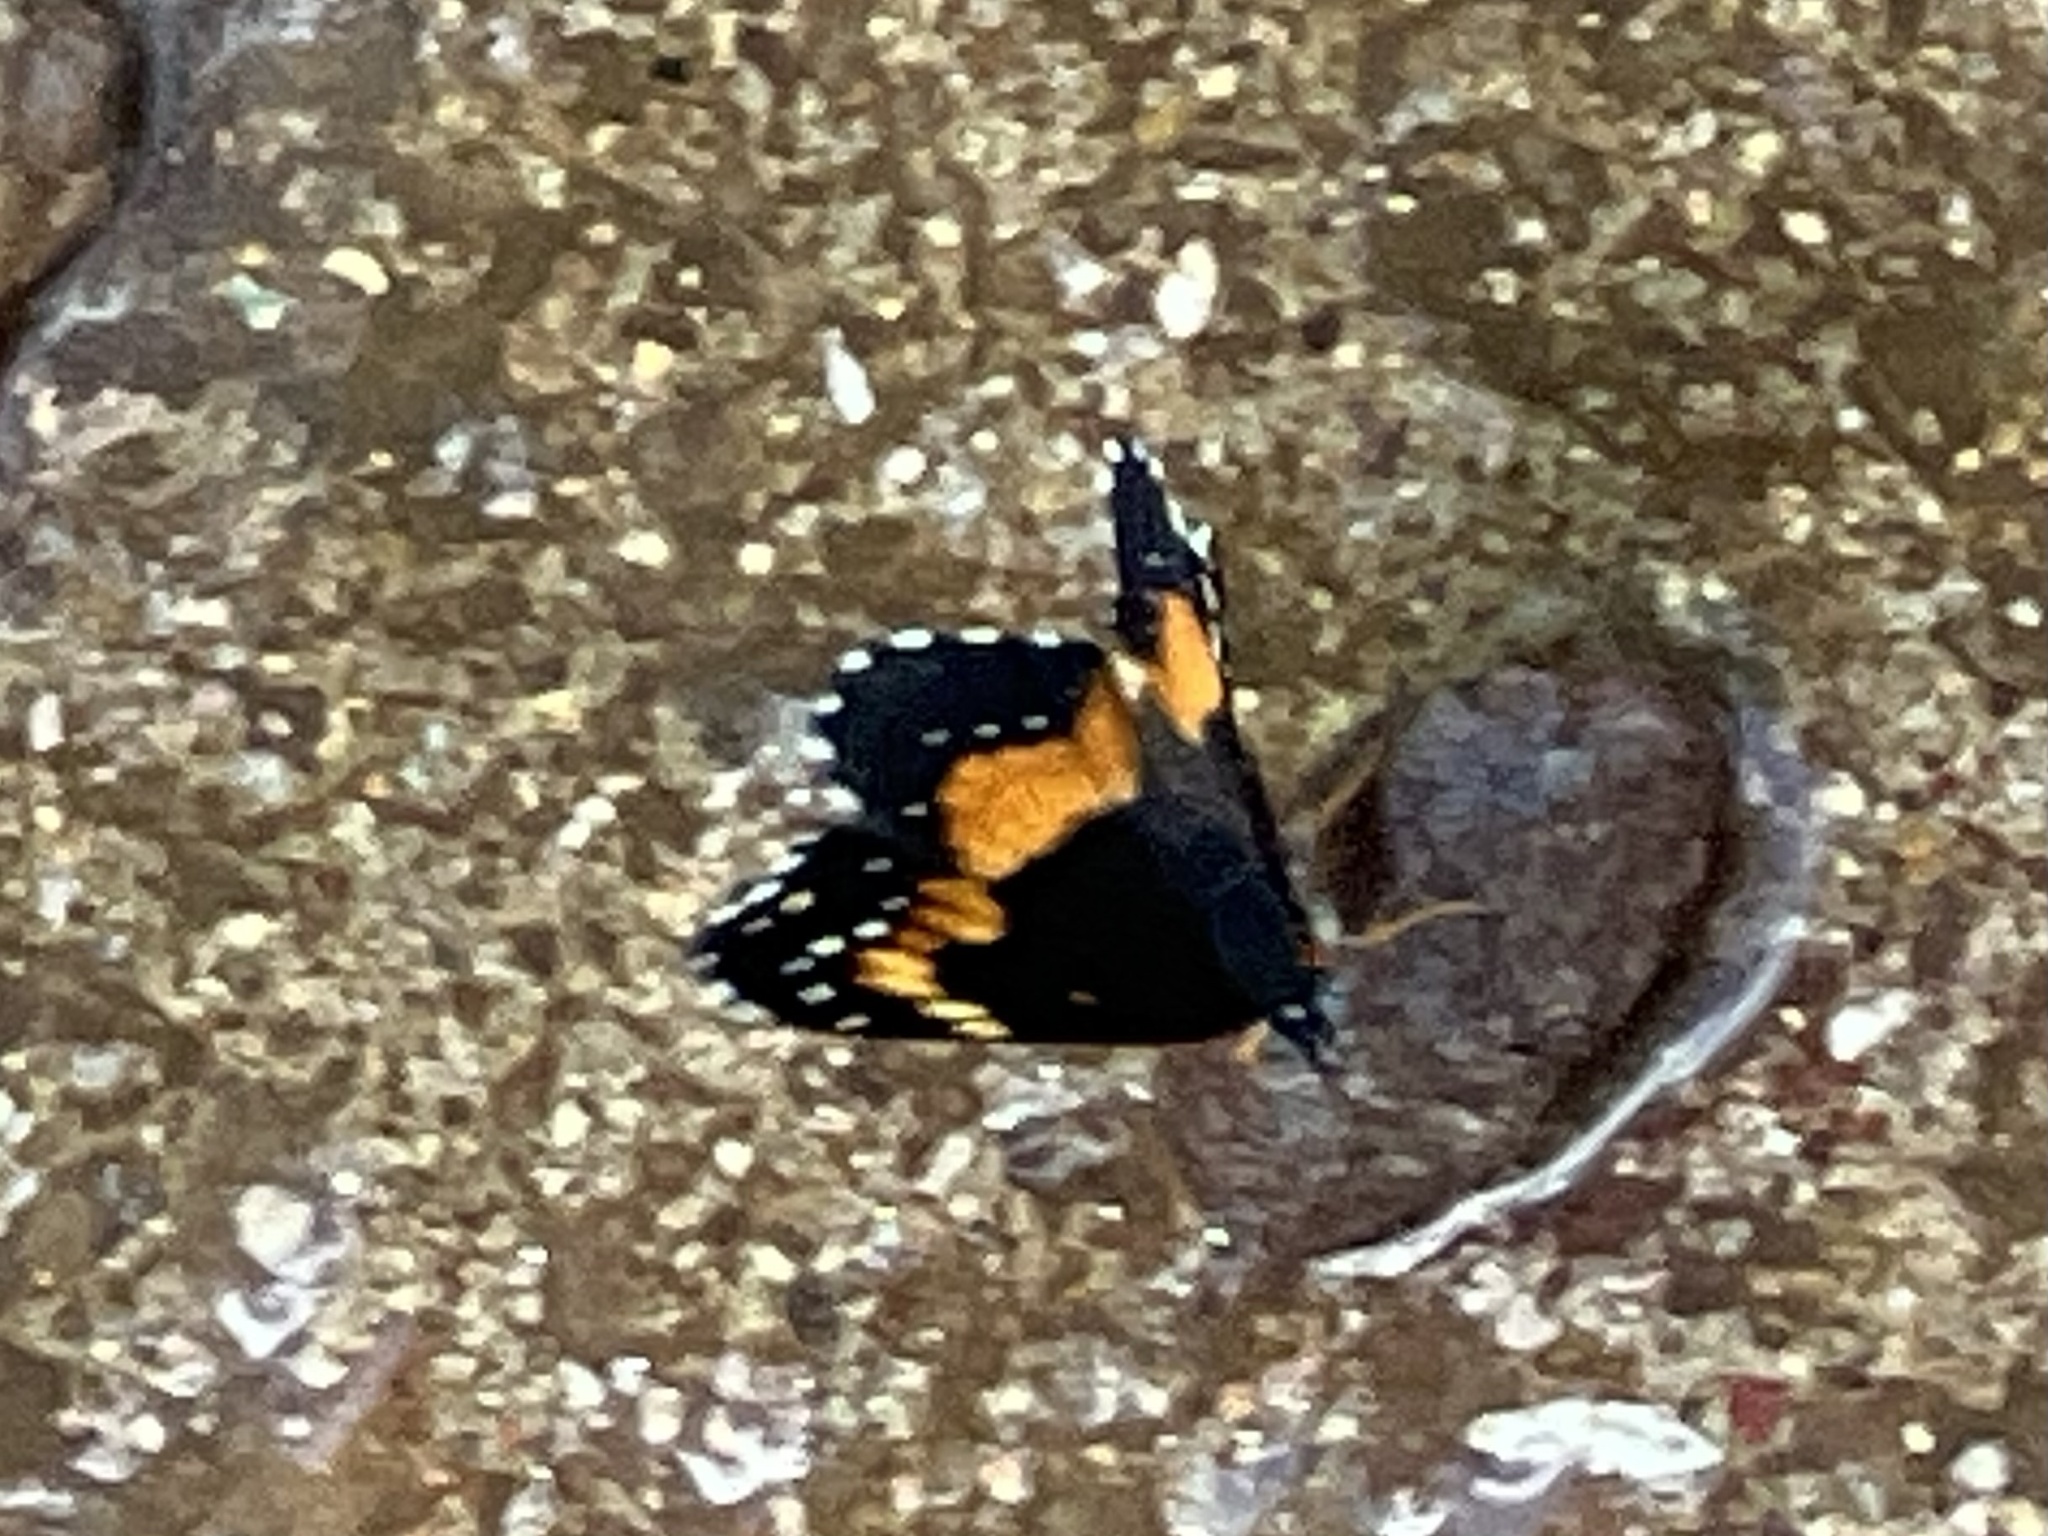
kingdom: Animalia
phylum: Arthropoda
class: Insecta
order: Lepidoptera
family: Nymphalidae
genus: Chlosyne
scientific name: Chlosyne lacinia
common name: Bordered patch
